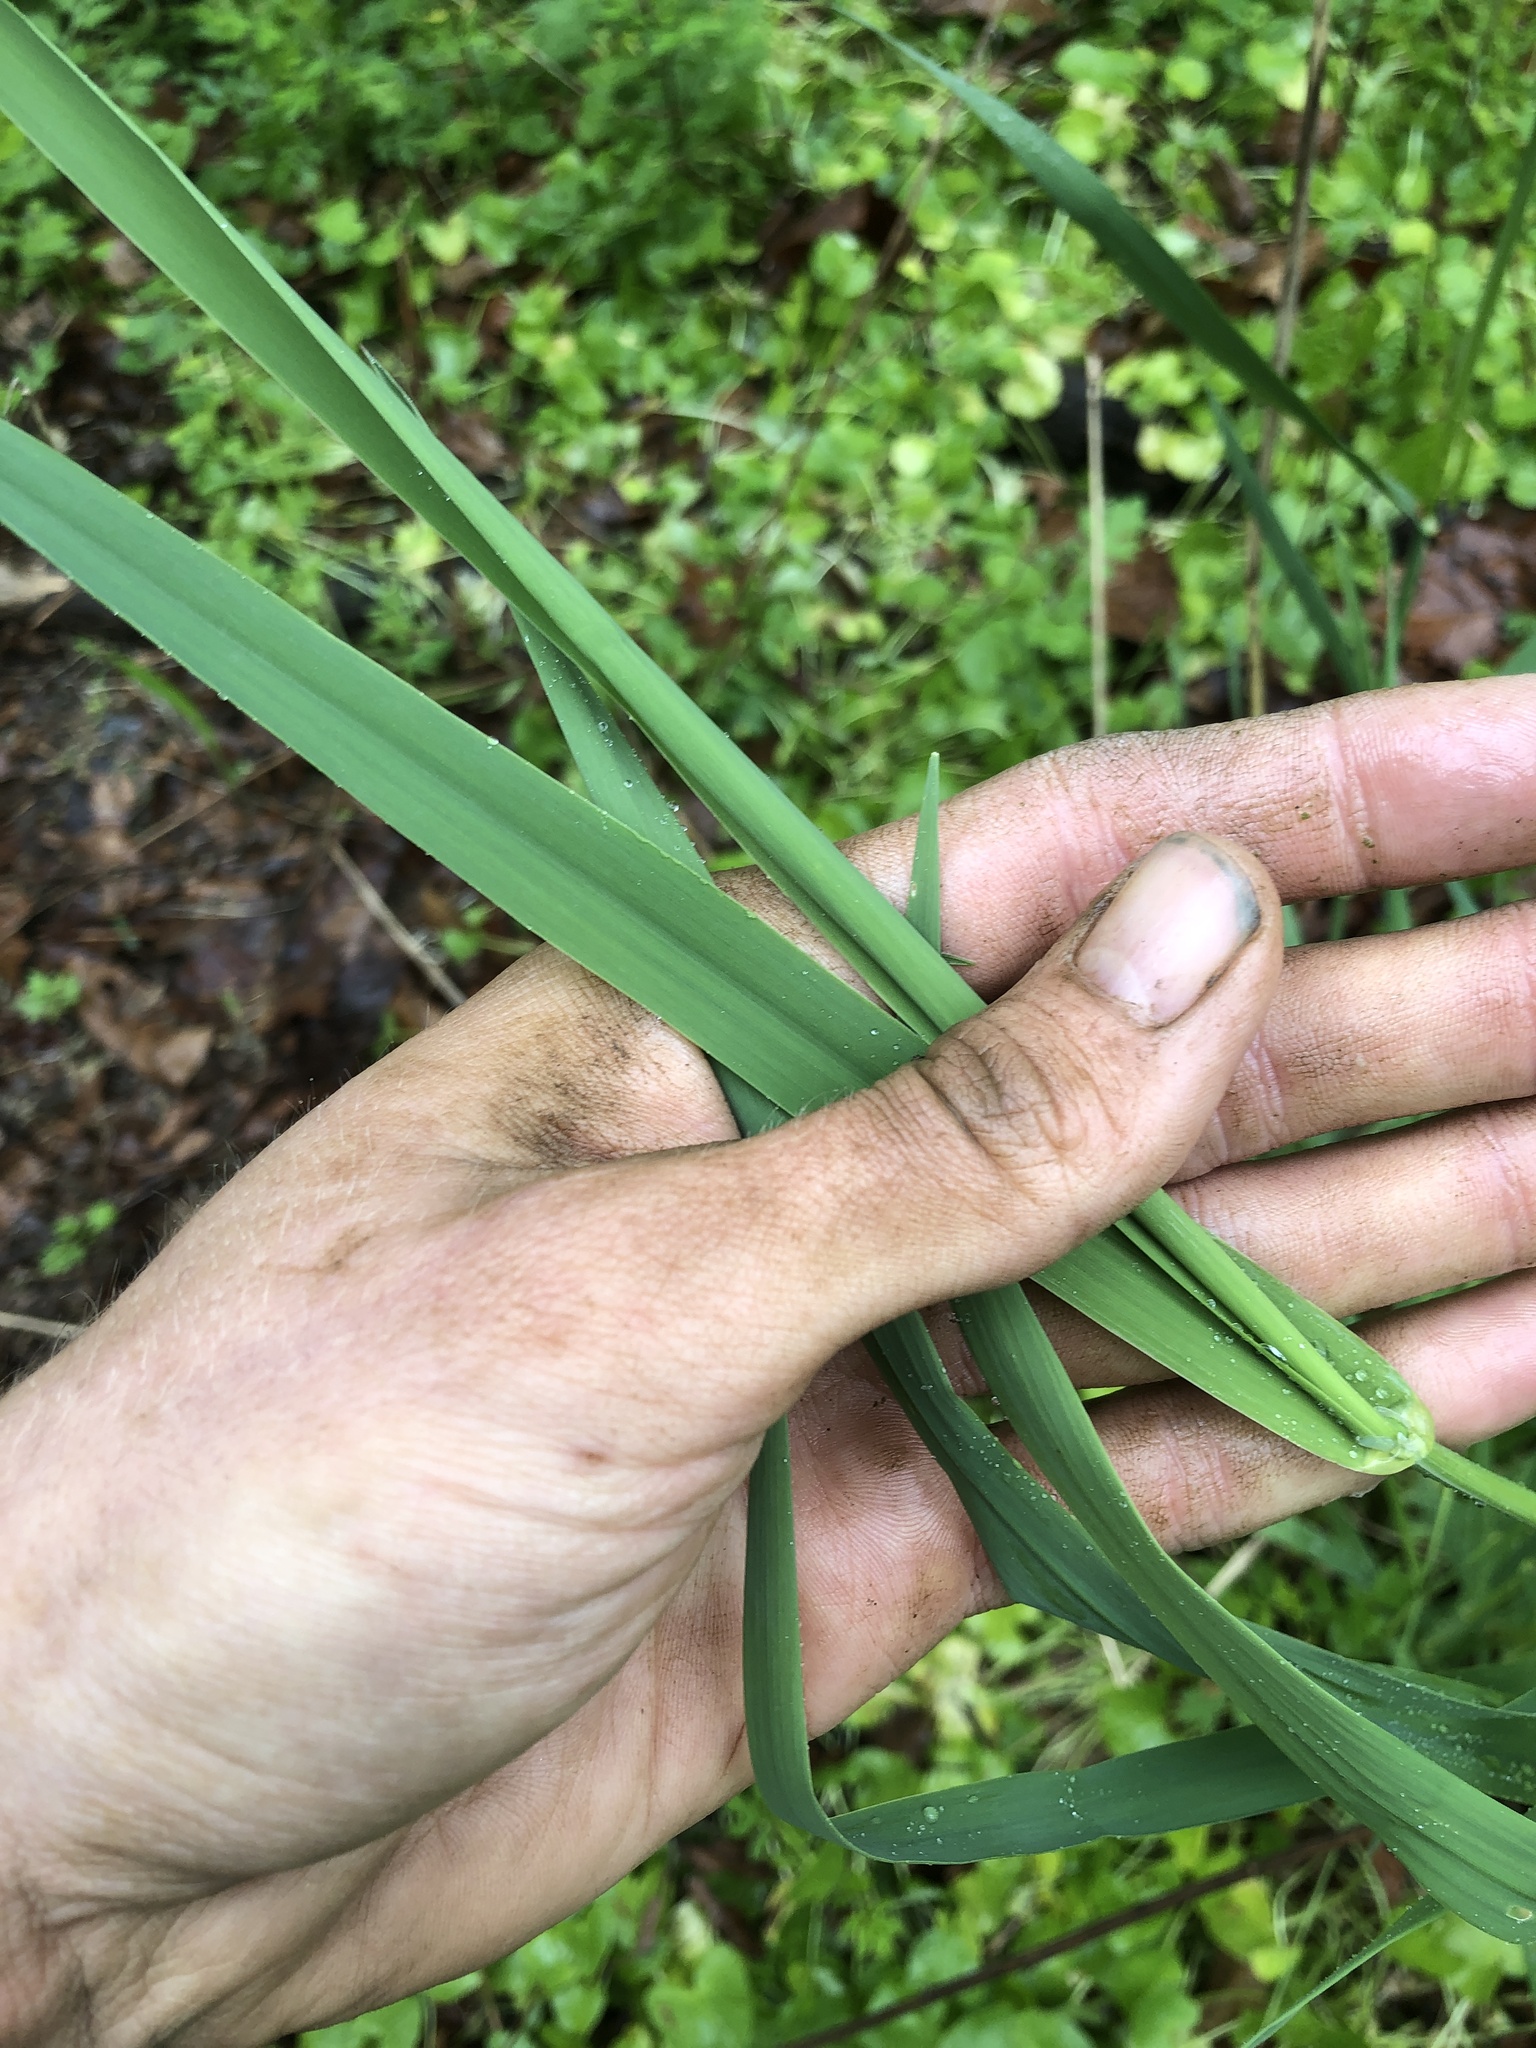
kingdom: Plantae
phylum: Tracheophyta
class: Liliopsida
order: Poales
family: Poaceae
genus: Phalaris
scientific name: Phalaris arundinacea
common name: Reed canary-grass
